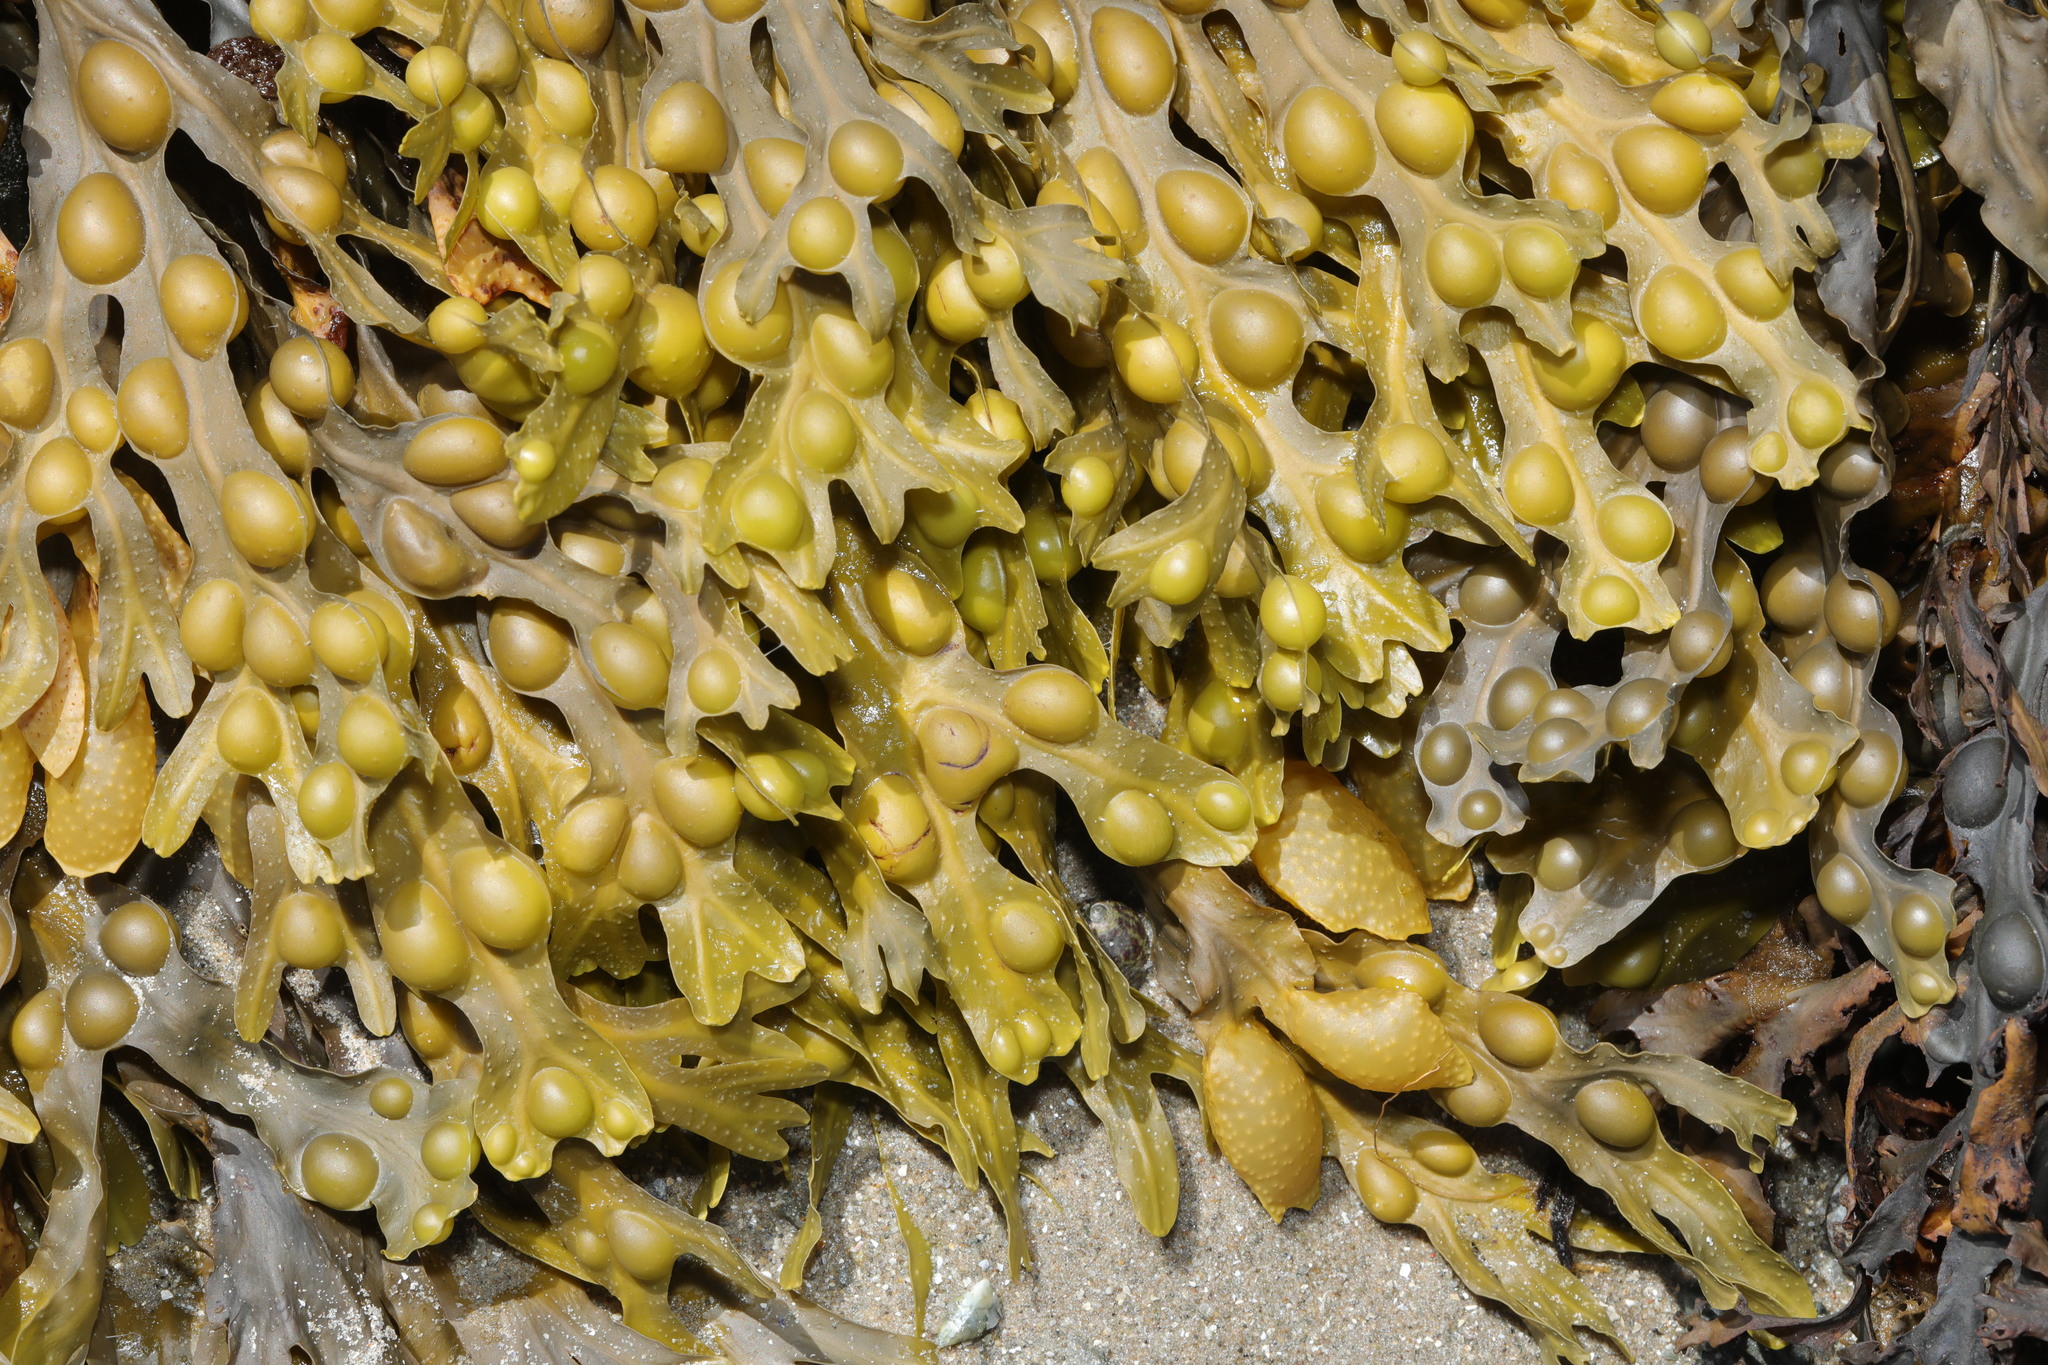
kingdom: Chromista
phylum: Ochrophyta
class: Phaeophyceae
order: Fucales
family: Fucaceae
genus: Fucus
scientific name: Fucus vesiculosus
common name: Bladder wrack
